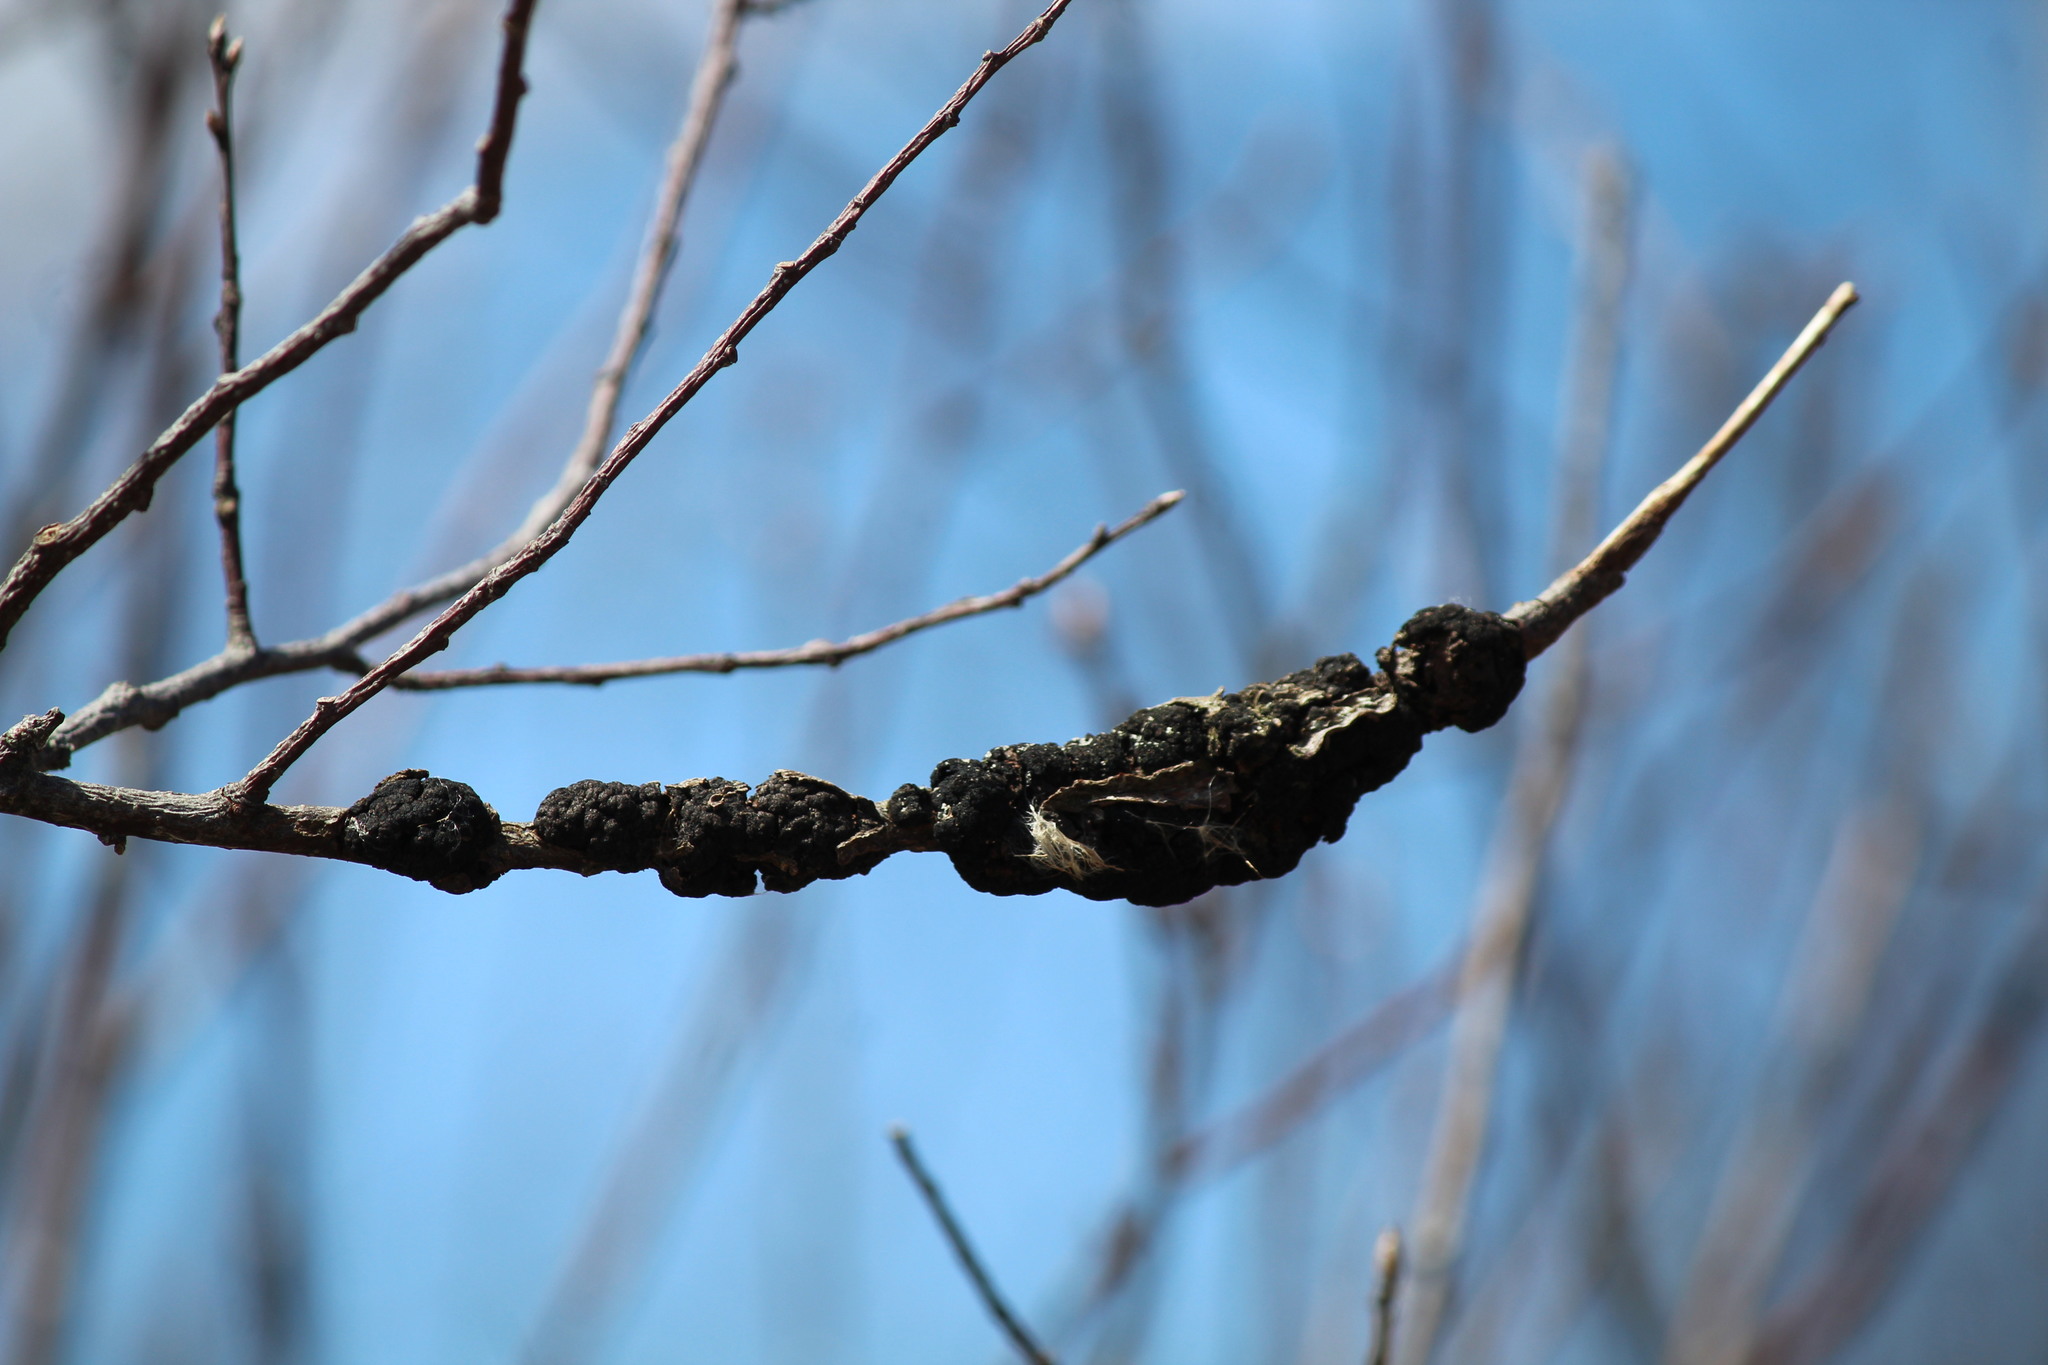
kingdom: Fungi
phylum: Ascomycota
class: Dothideomycetes
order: Venturiales
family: Venturiaceae
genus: Apiosporina
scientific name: Apiosporina morbosa
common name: Black knot
